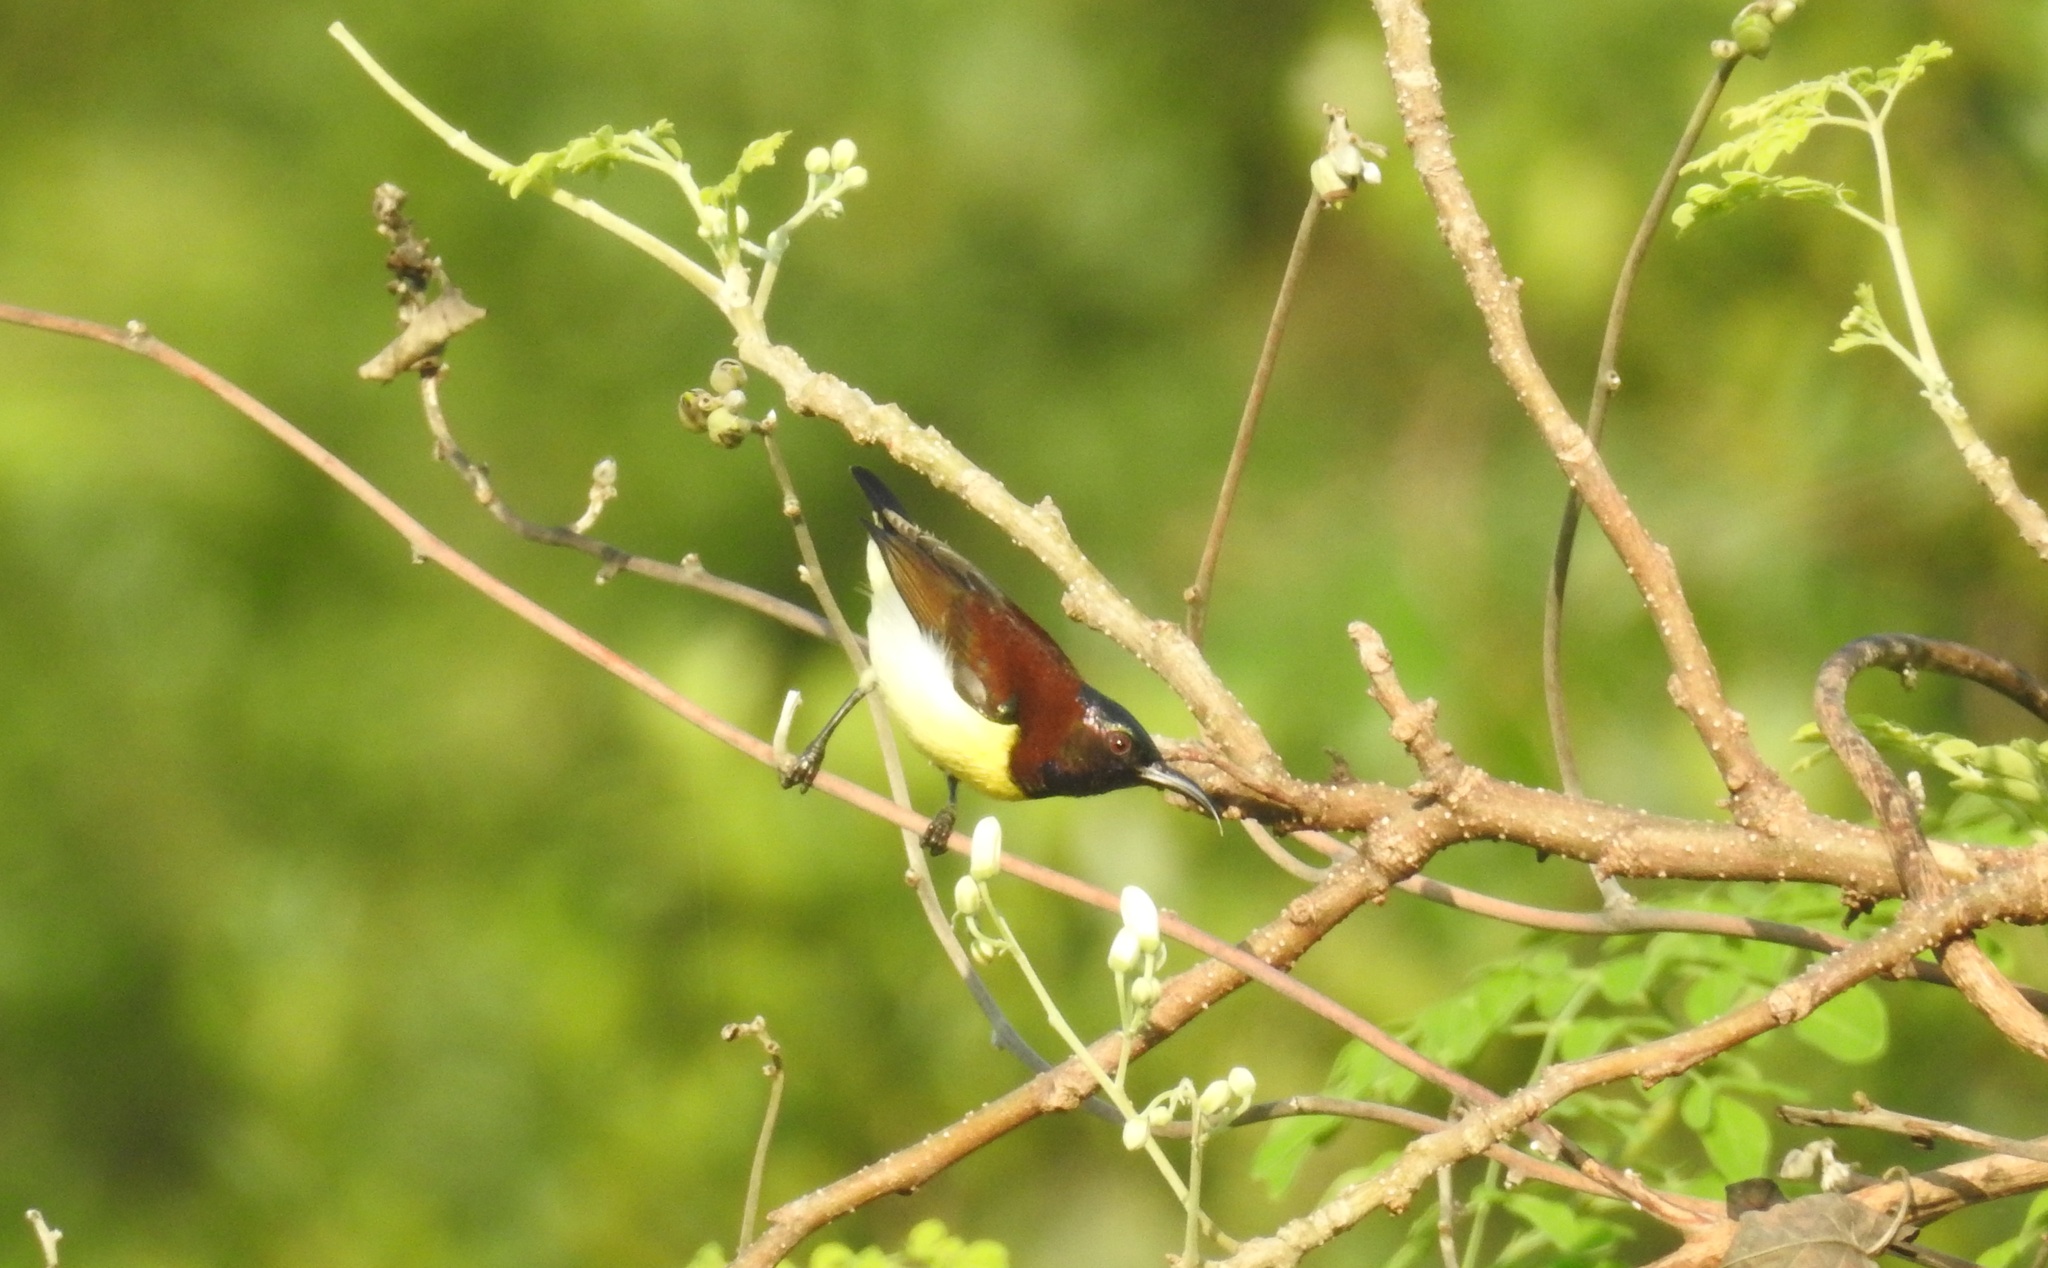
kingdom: Animalia
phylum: Chordata
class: Aves
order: Passeriformes
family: Nectariniidae
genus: Leptocoma
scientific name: Leptocoma zeylonica
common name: Purple-rumped sunbird
